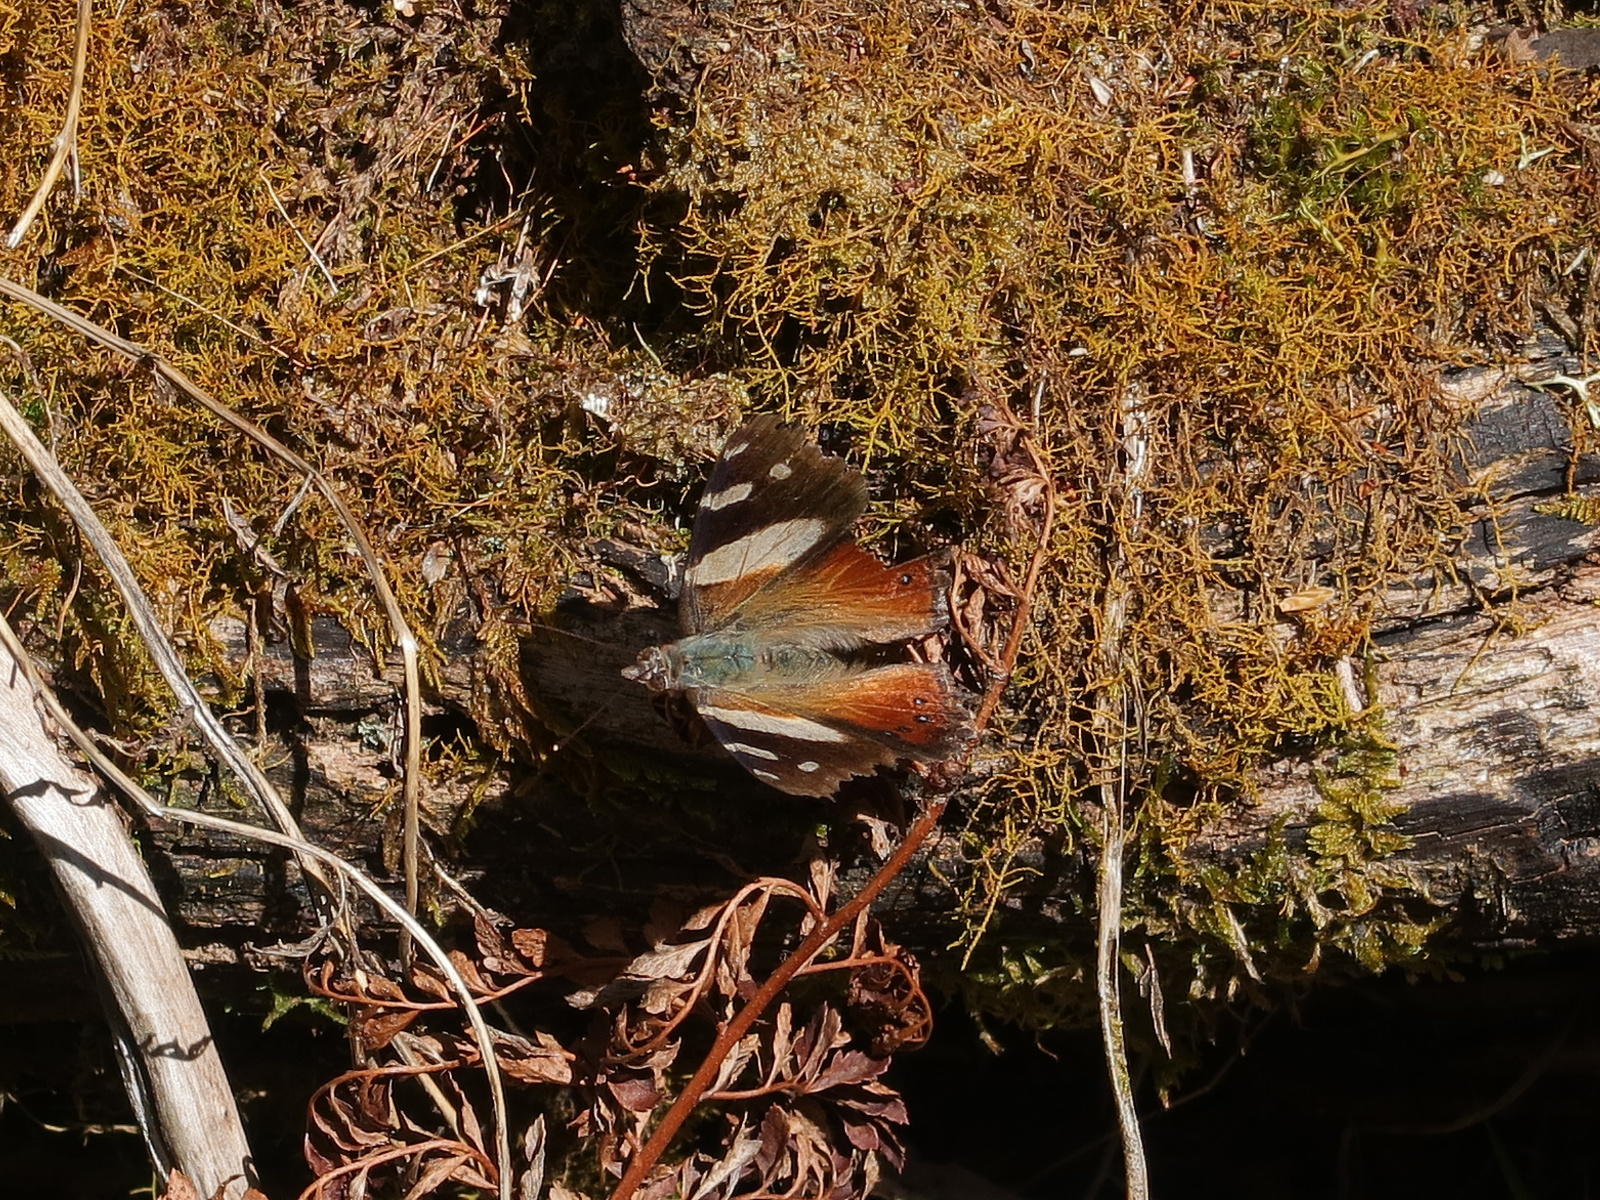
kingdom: Animalia
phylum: Arthropoda
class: Insecta
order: Lepidoptera
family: Nymphalidae
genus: Vanessa
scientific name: Vanessa itea
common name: Yellow admiral
